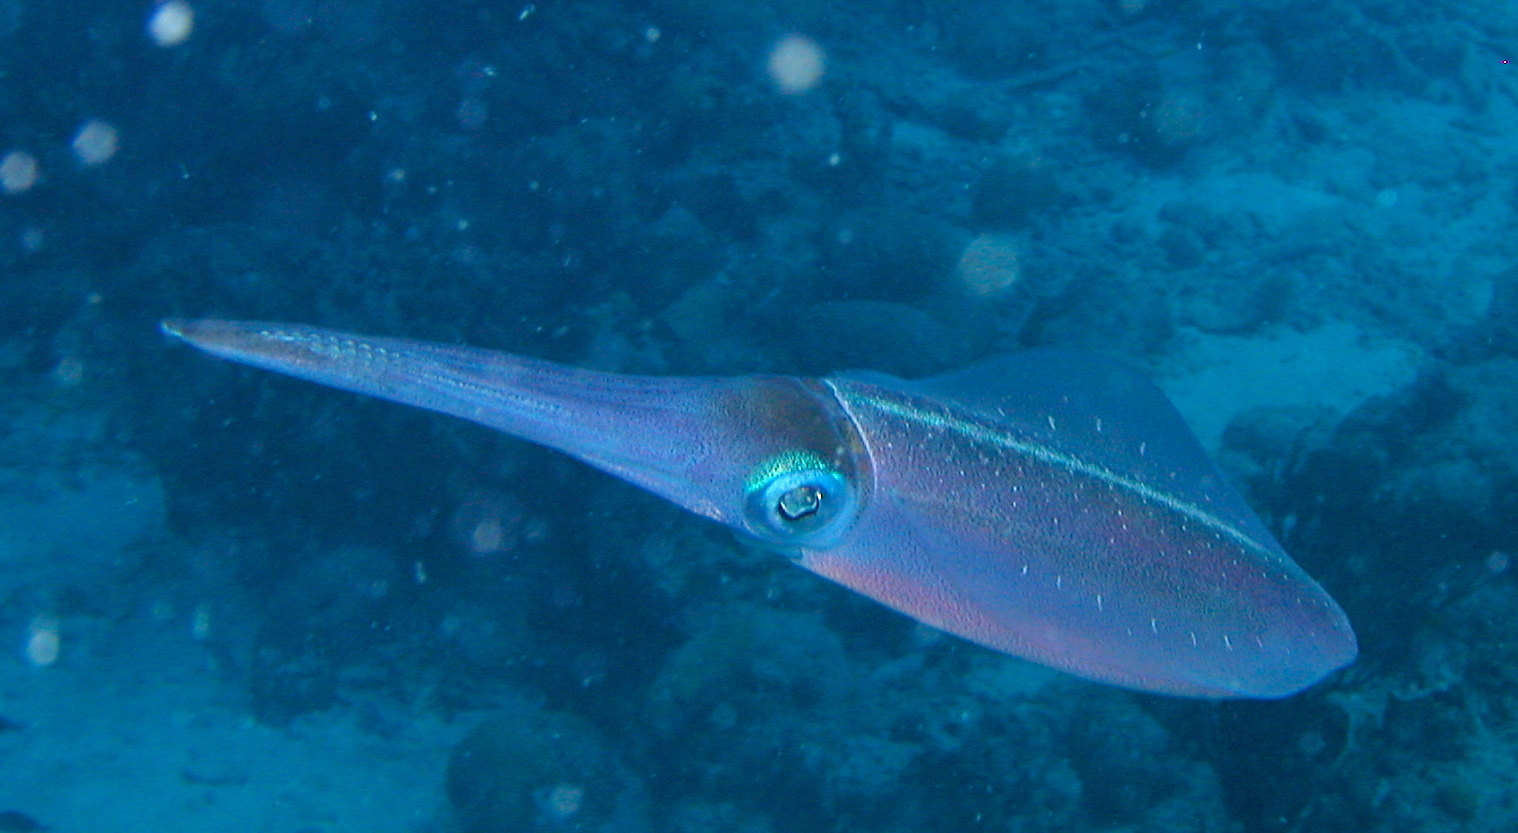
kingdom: Animalia
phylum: Mollusca
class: Cephalopoda
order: Myopsida
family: Loliginidae
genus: Sepioteuthis
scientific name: Sepioteuthis sepioidea
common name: Caribbean reef squid
